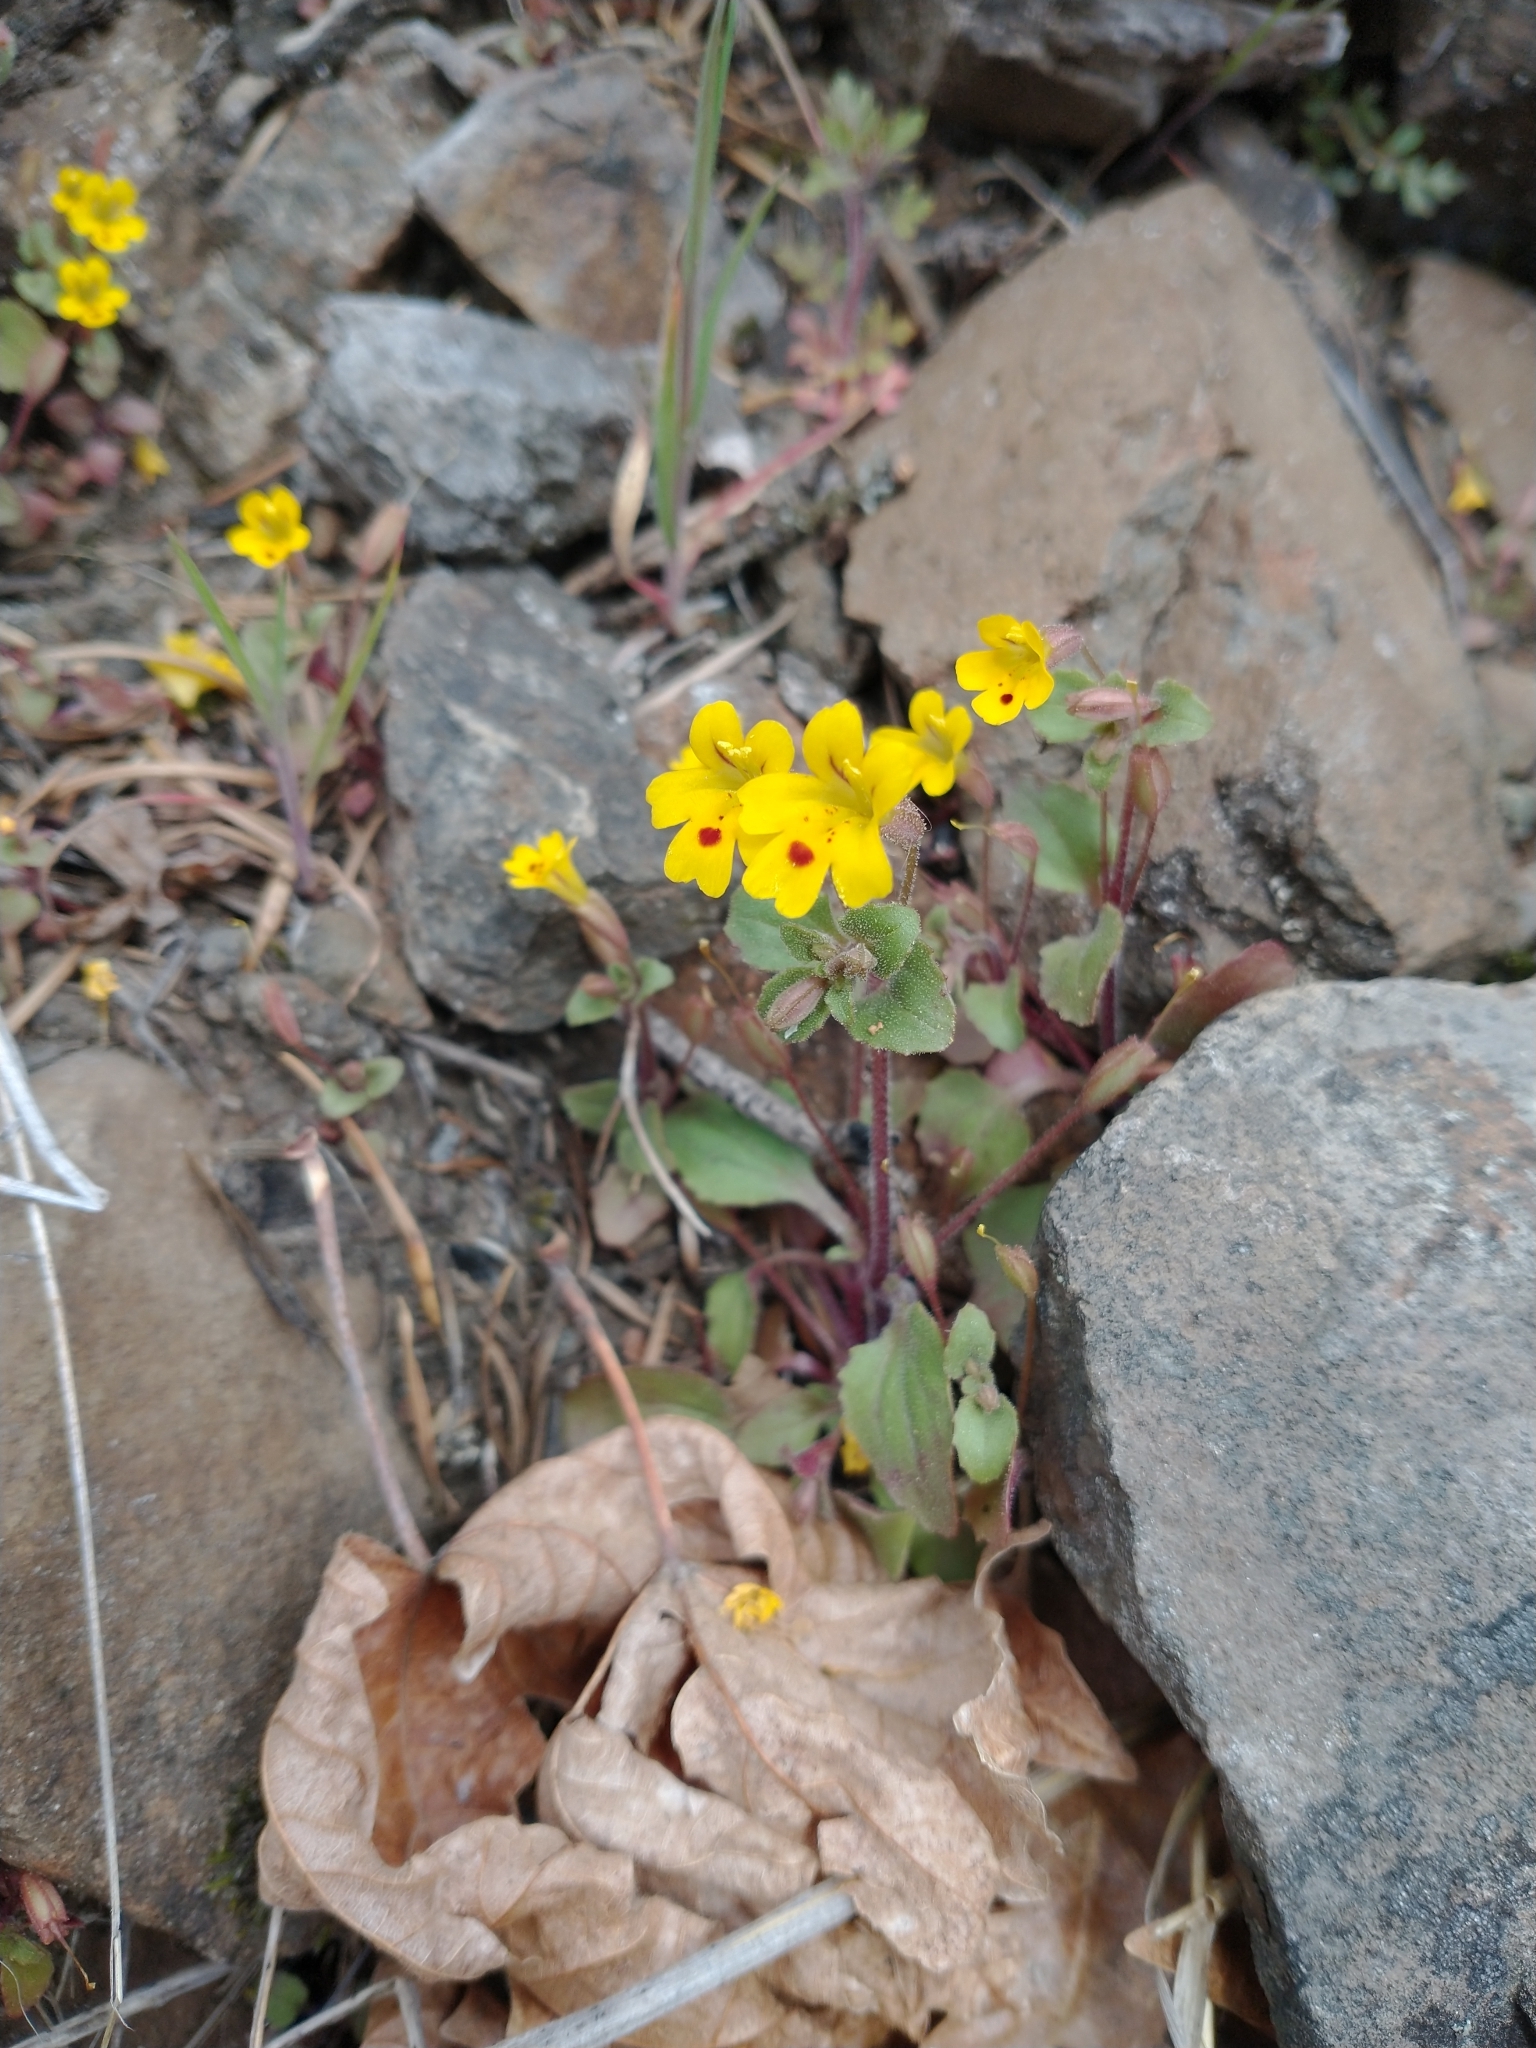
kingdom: Plantae
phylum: Tracheophyta
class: Magnoliopsida
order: Lamiales
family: Phrymaceae
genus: Erythranthe
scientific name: Erythranthe alsinoides
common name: Chickweed monkeyflower
